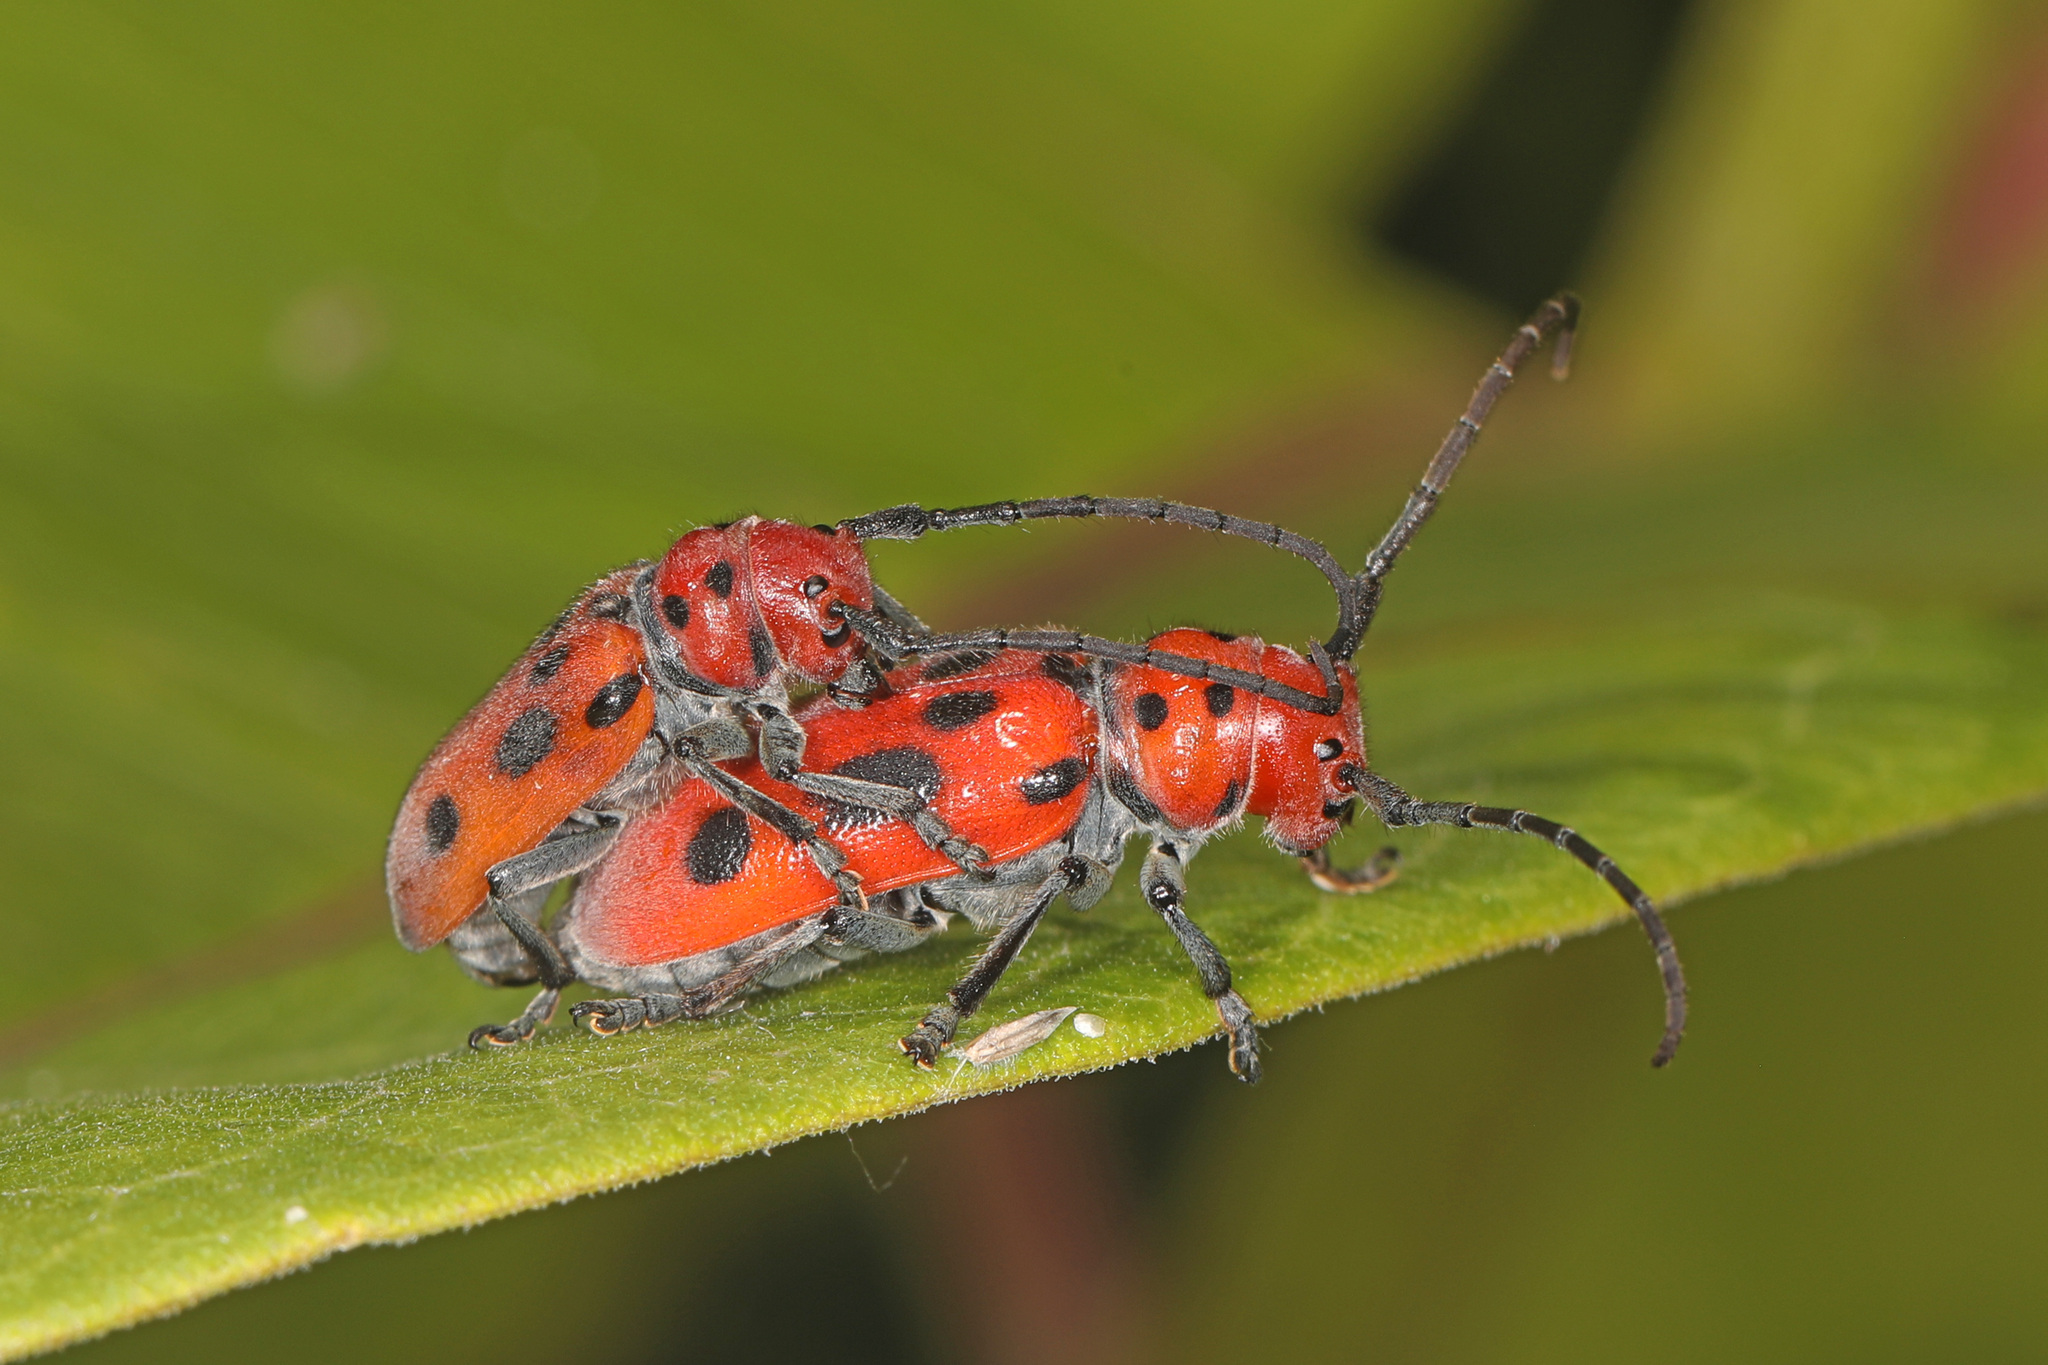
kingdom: Animalia
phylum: Arthropoda
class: Insecta
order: Coleoptera
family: Cerambycidae
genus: Tetraopes
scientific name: Tetraopes tetrophthalmus
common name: Red milkweed beetle
